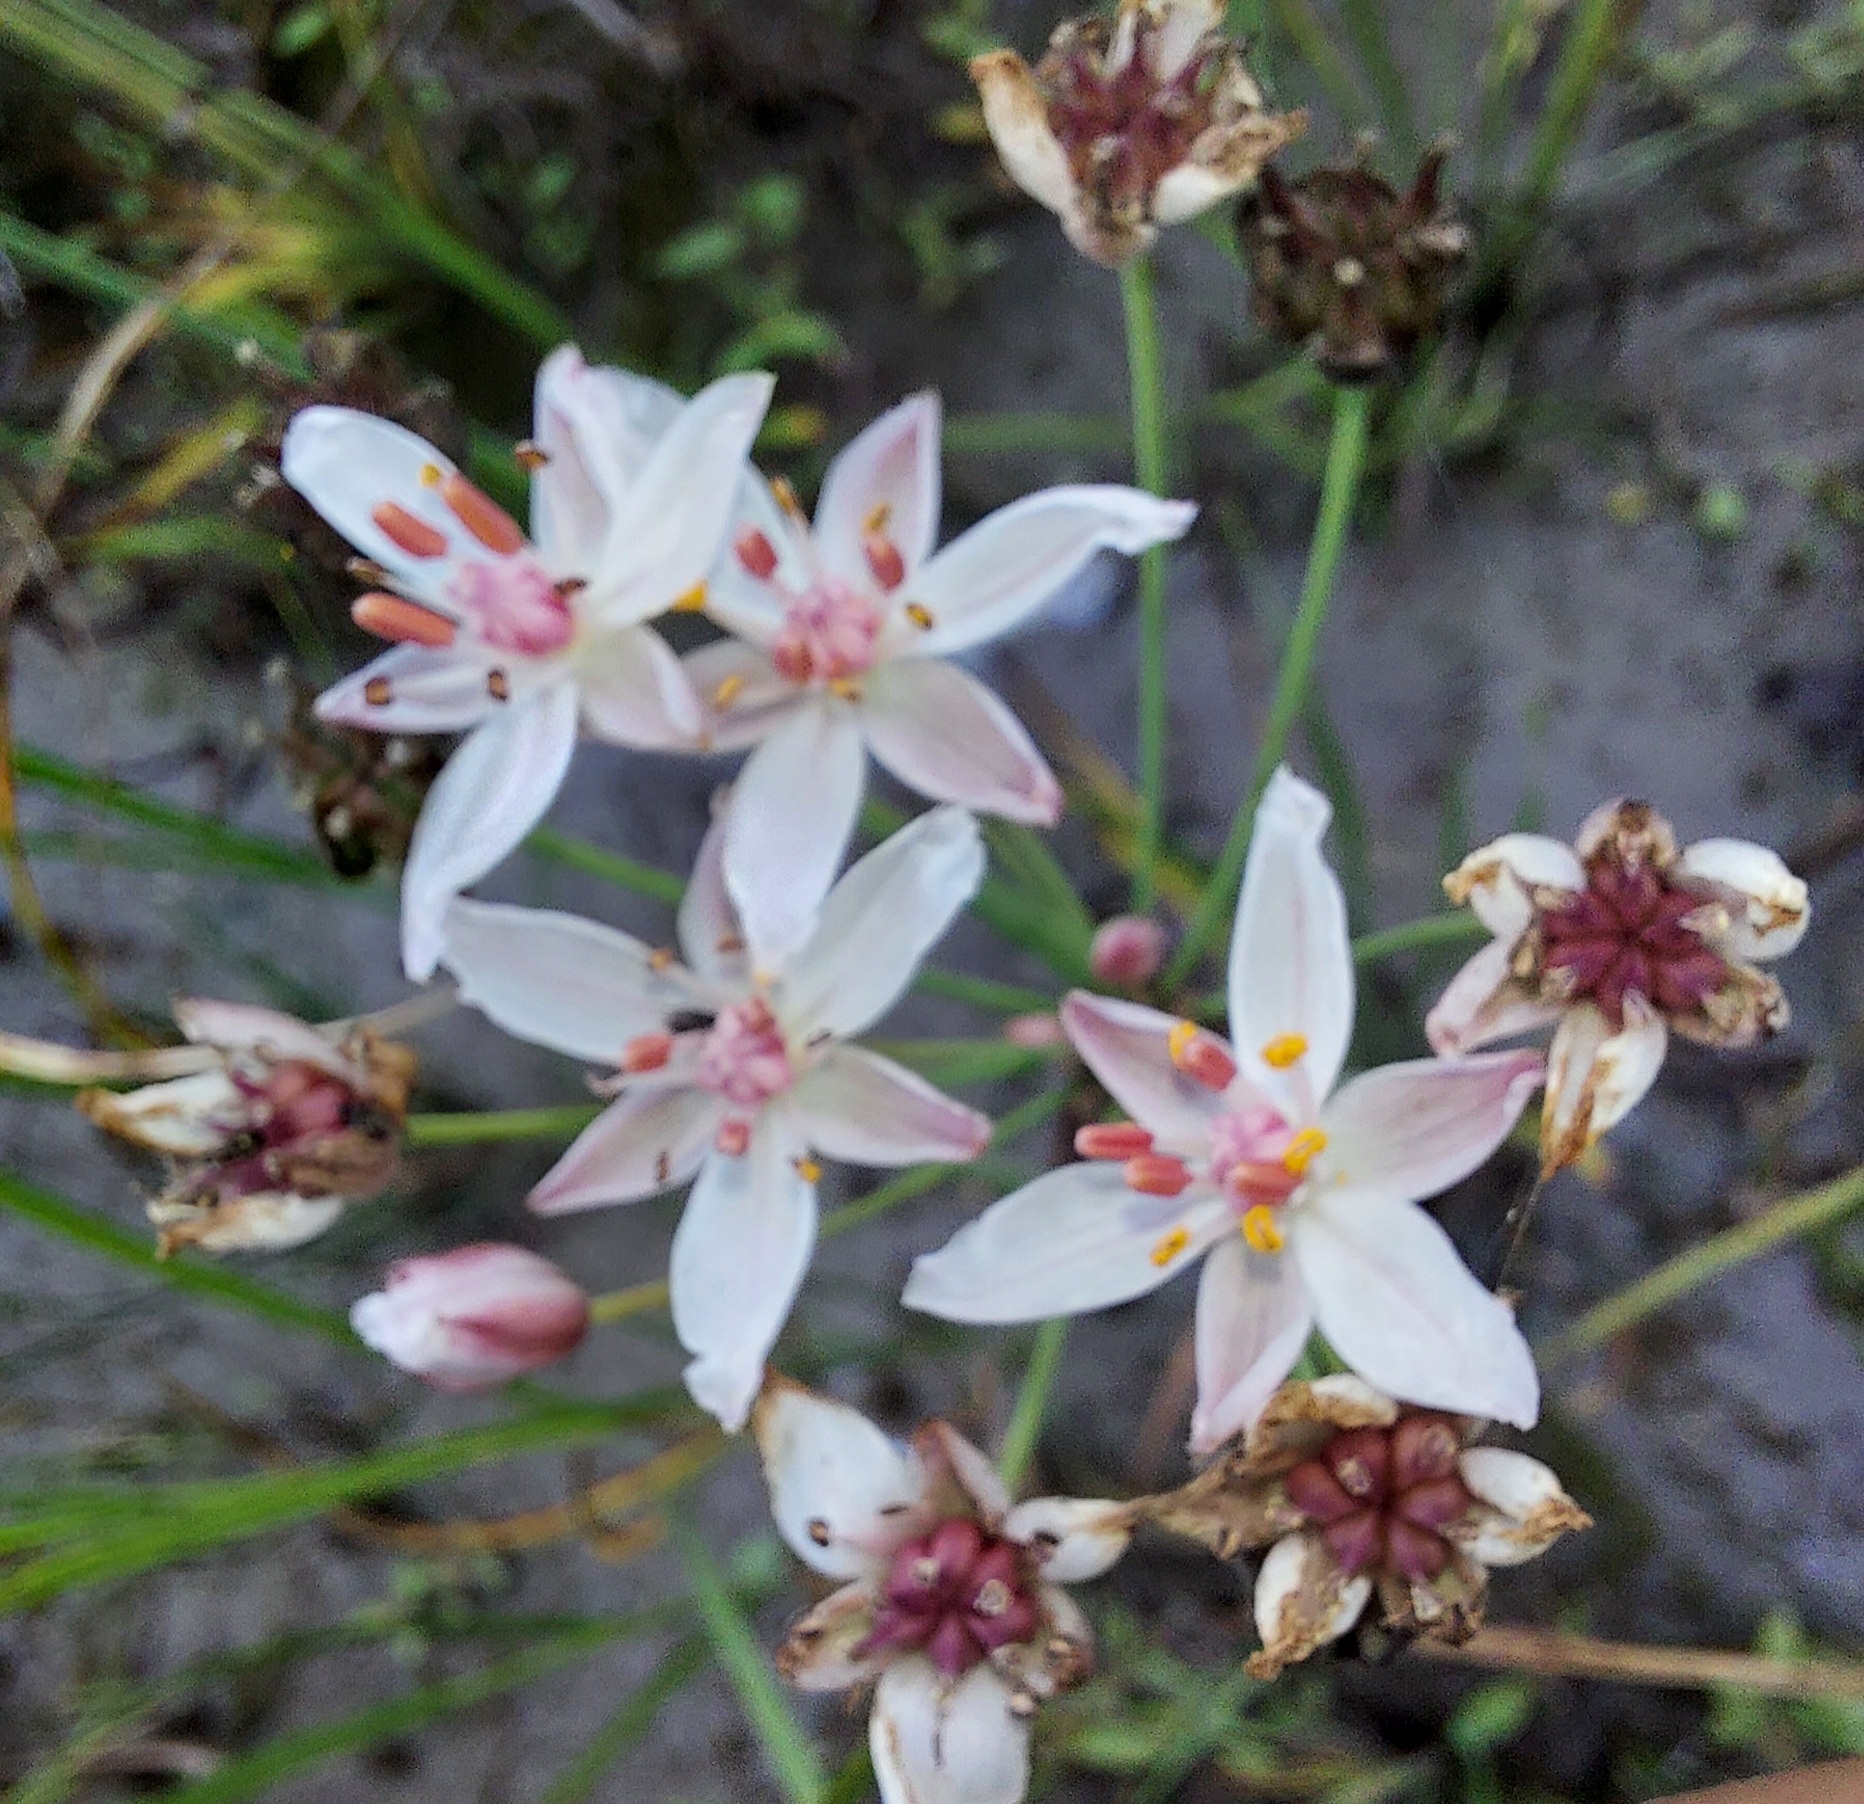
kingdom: Plantae
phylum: Tracheophyta
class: Liliopsida
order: Alismatales
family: Butomaceae
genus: Butomus
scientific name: Butomus umbellatus
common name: Flowering-rush
